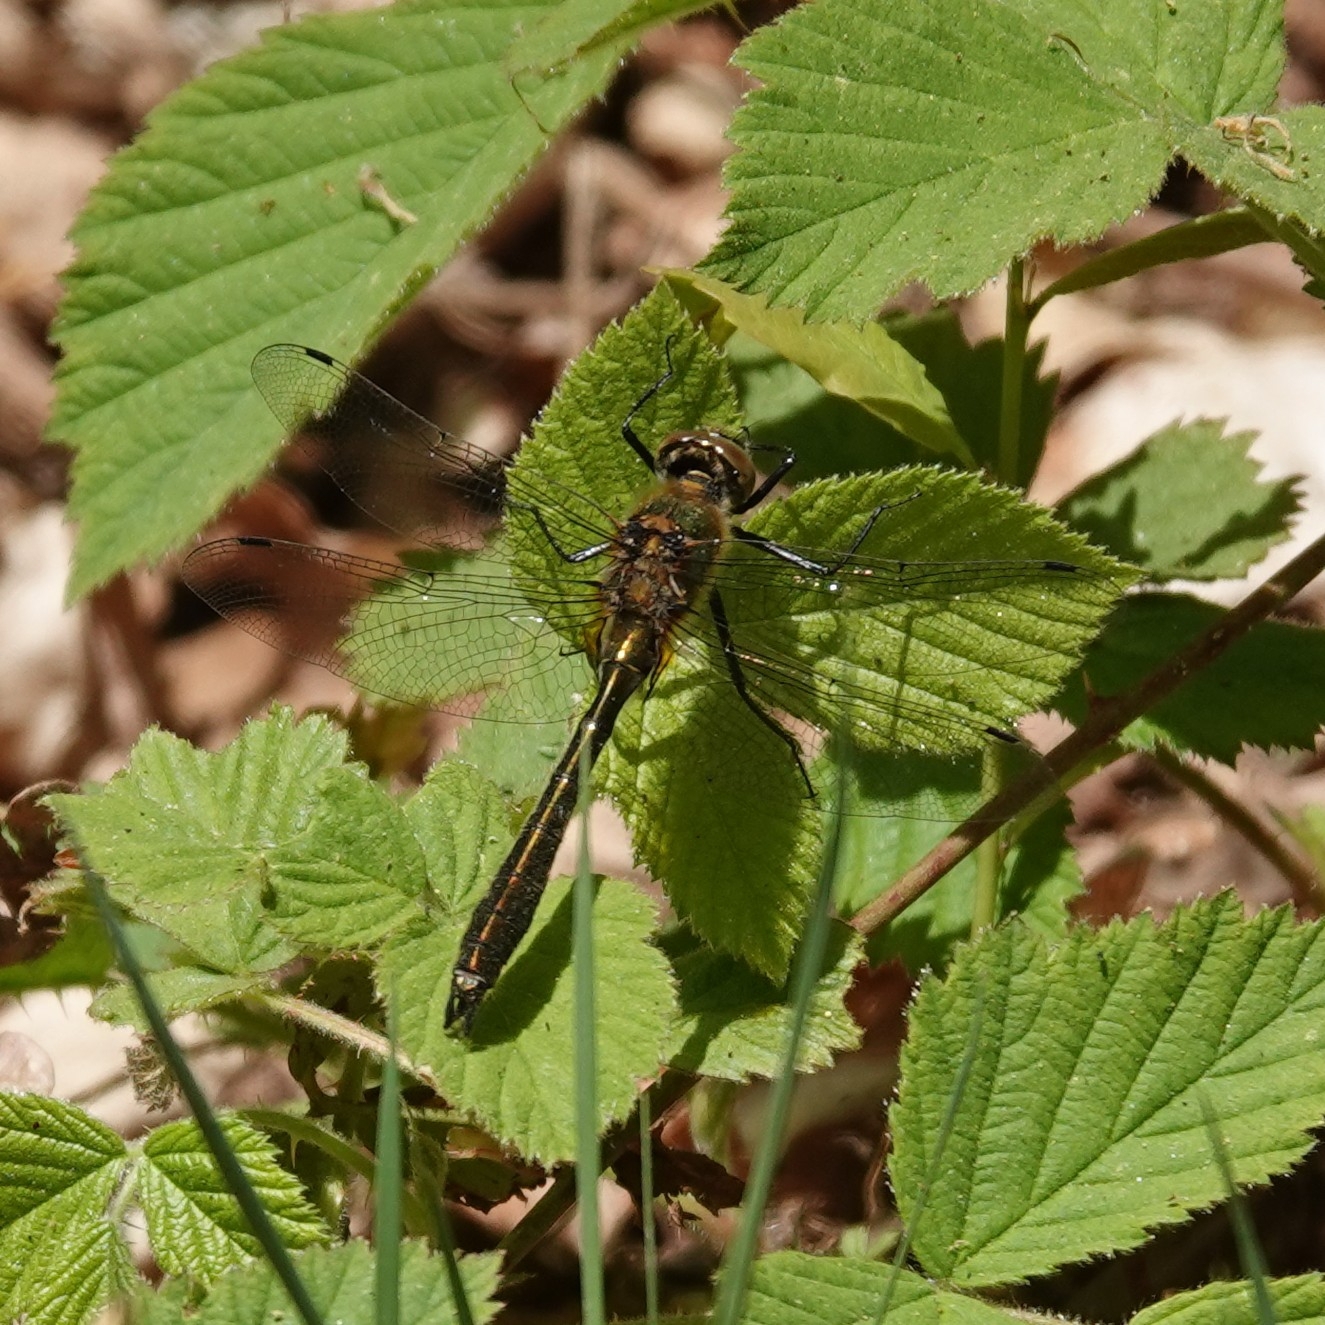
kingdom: Animalia
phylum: Arthropoda
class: Insecta
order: Odonata
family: Corduliidae
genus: Cordulia
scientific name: Cordulia aenea
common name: Downy emerald
